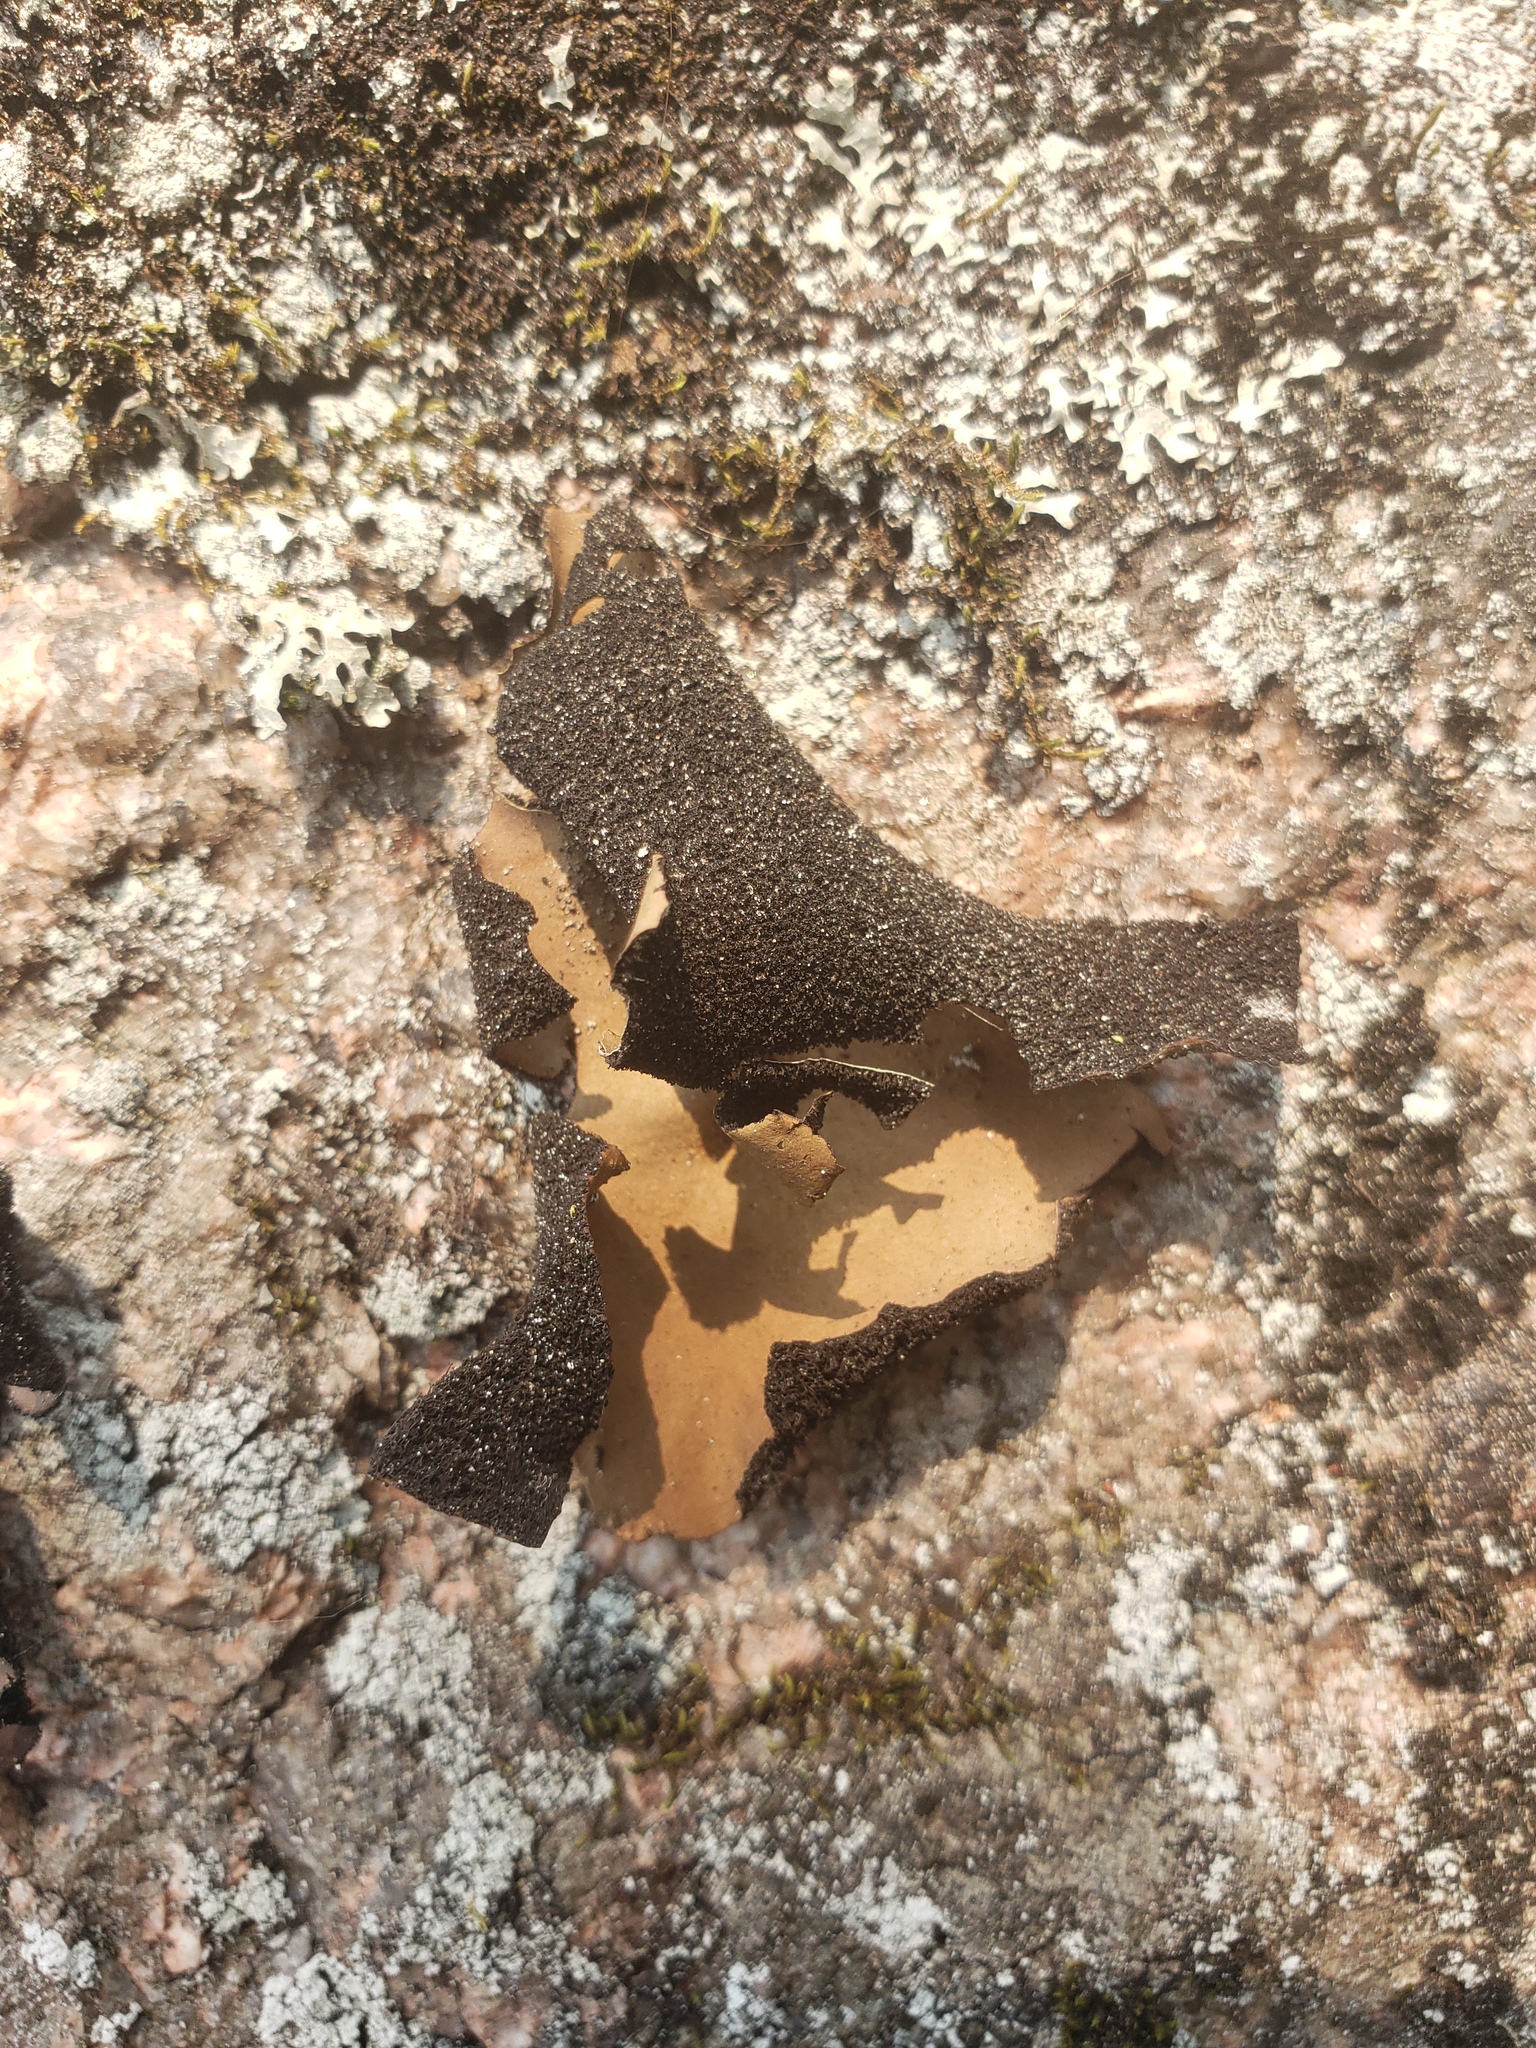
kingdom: Fungi
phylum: Ascomycota
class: Lecanoromycetes
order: Umbilicariales
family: Umbilicariaceae
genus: Umbilicaria
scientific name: Umbilicaria mammulata
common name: Smooth rock tripe
